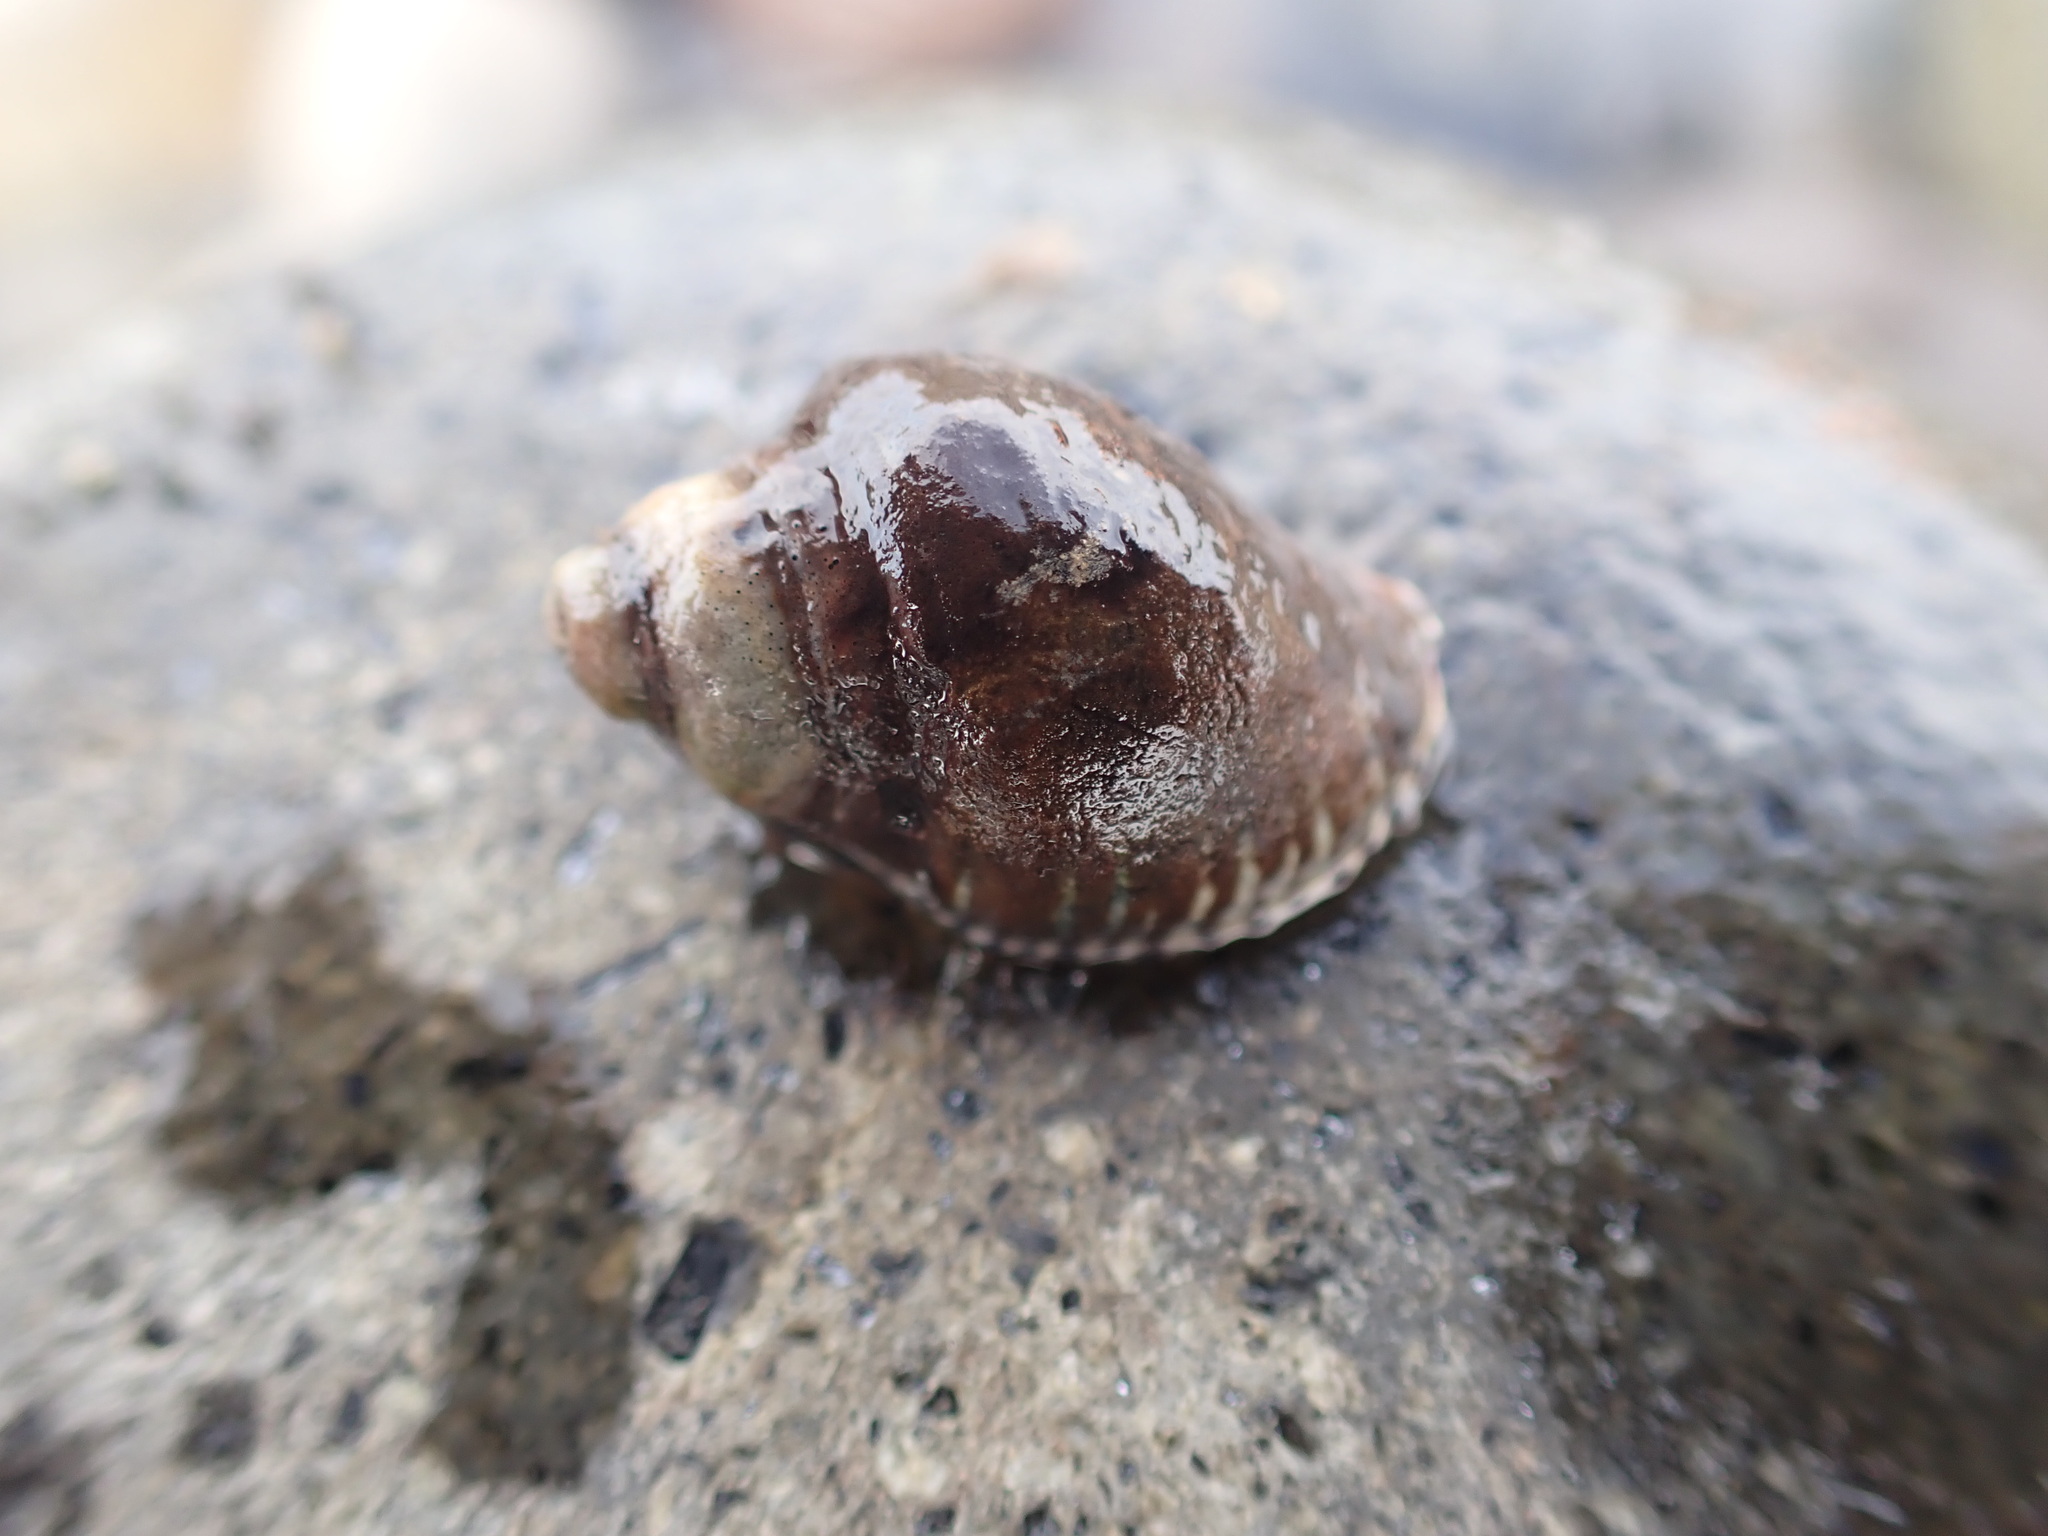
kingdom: Animalia
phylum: Mollusca
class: Gastropoda
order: Neogastropoda
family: Muricidae
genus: Haustrum
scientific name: Haustrum albomarginatum
